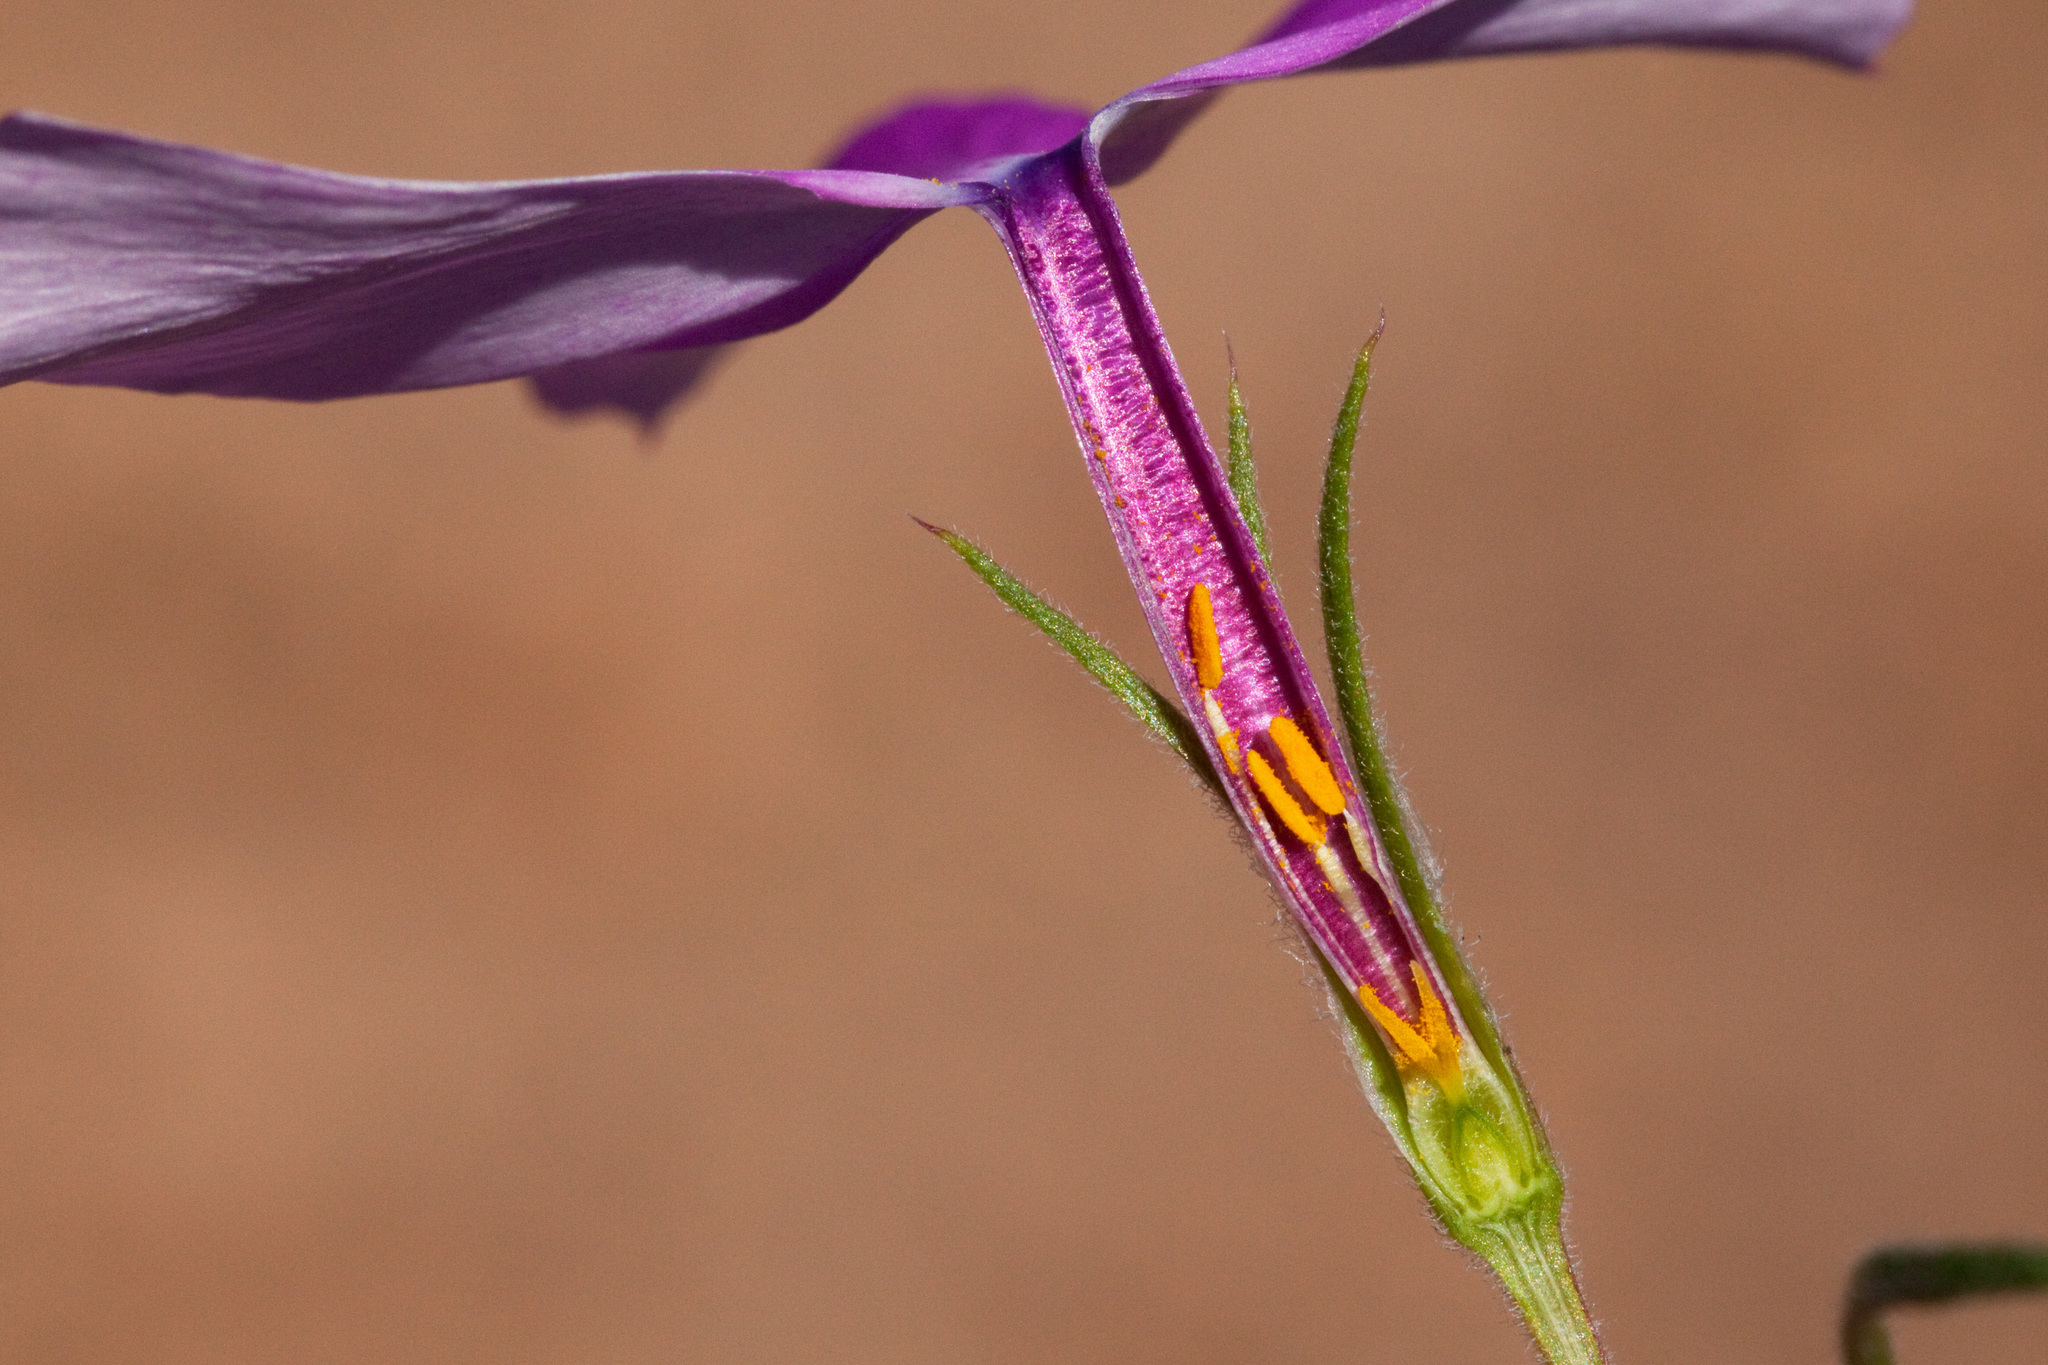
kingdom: Plantae
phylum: Tracheophyta
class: Magnoliopsida
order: Ericales
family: Polemoniaceae
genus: Phlox
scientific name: Phlox nana
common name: Santa fe phlox
